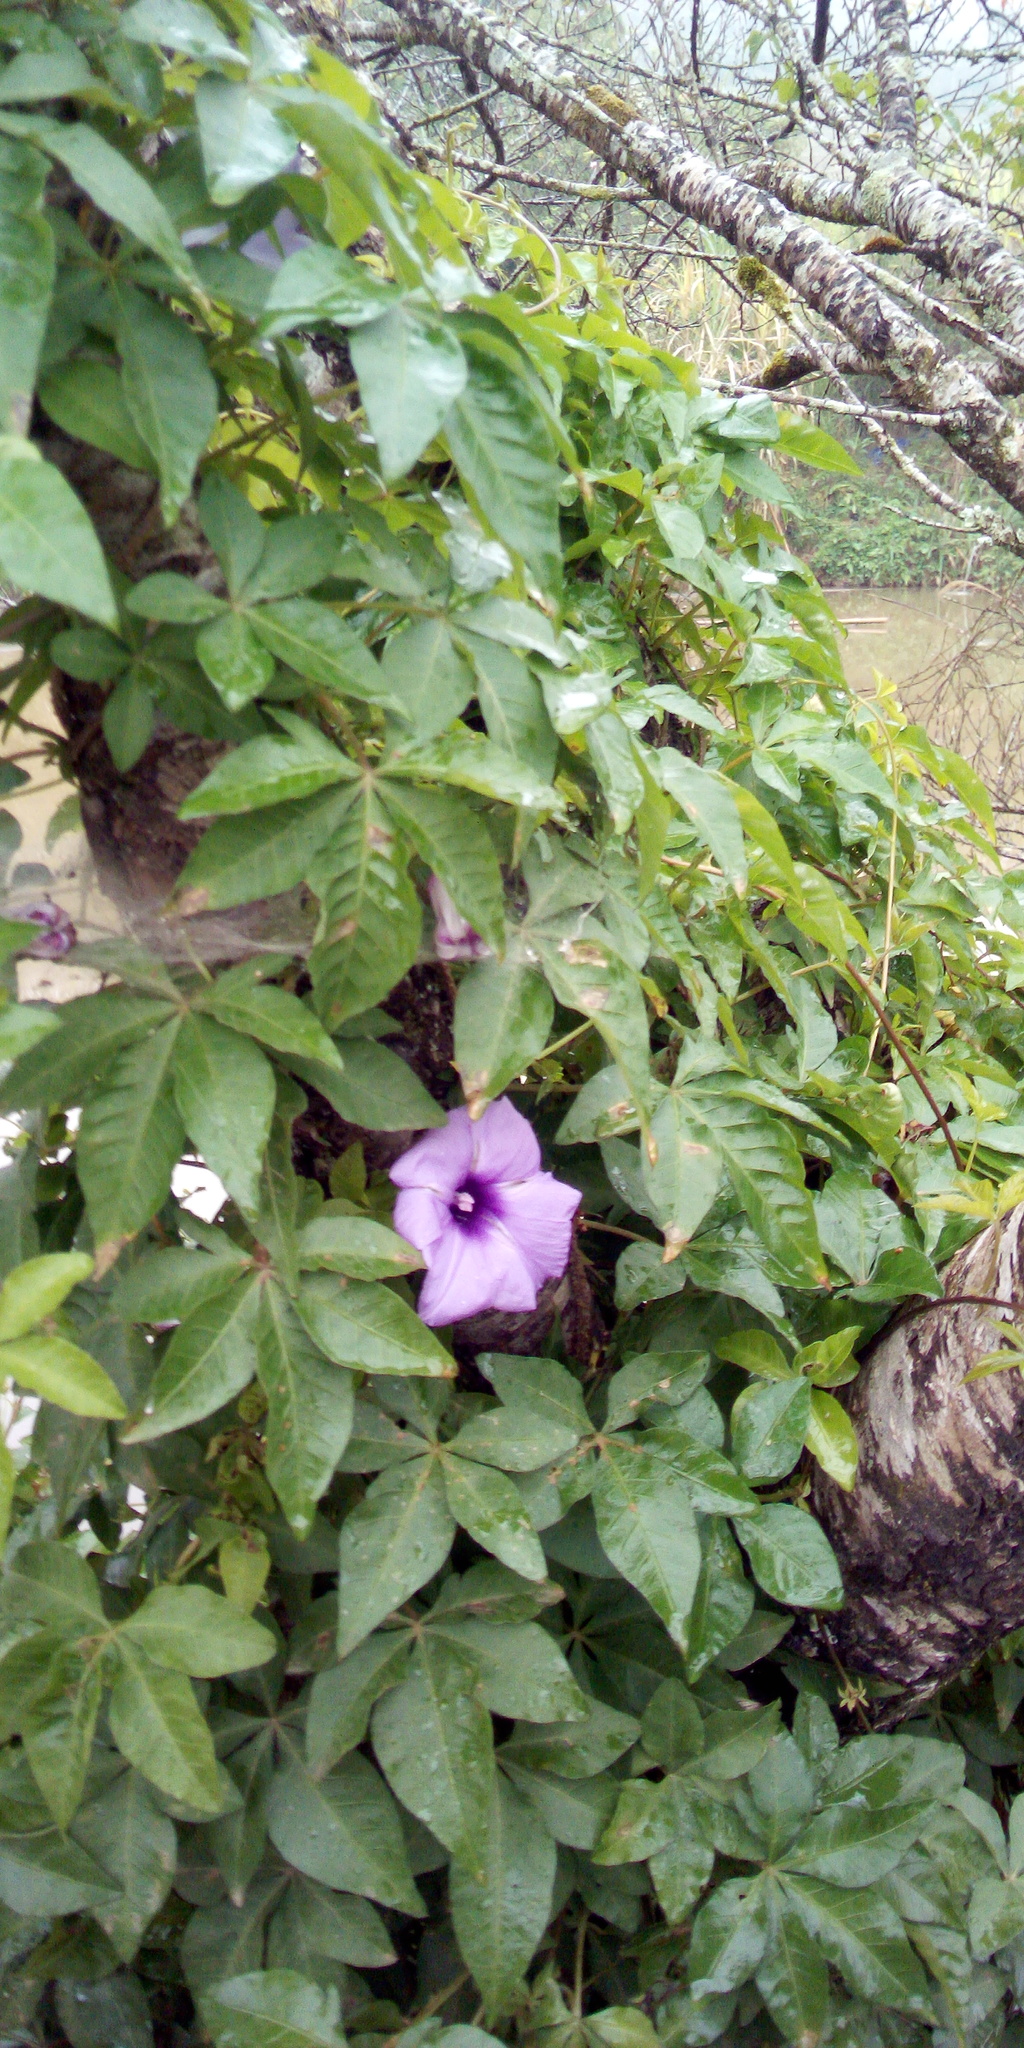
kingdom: Plantae
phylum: Tracheophyta
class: Magnoliopsida
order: Solanales
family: Convolvulaceae
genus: Ipomoea
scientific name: Ipomoea cairica
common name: Mile a minute vine
